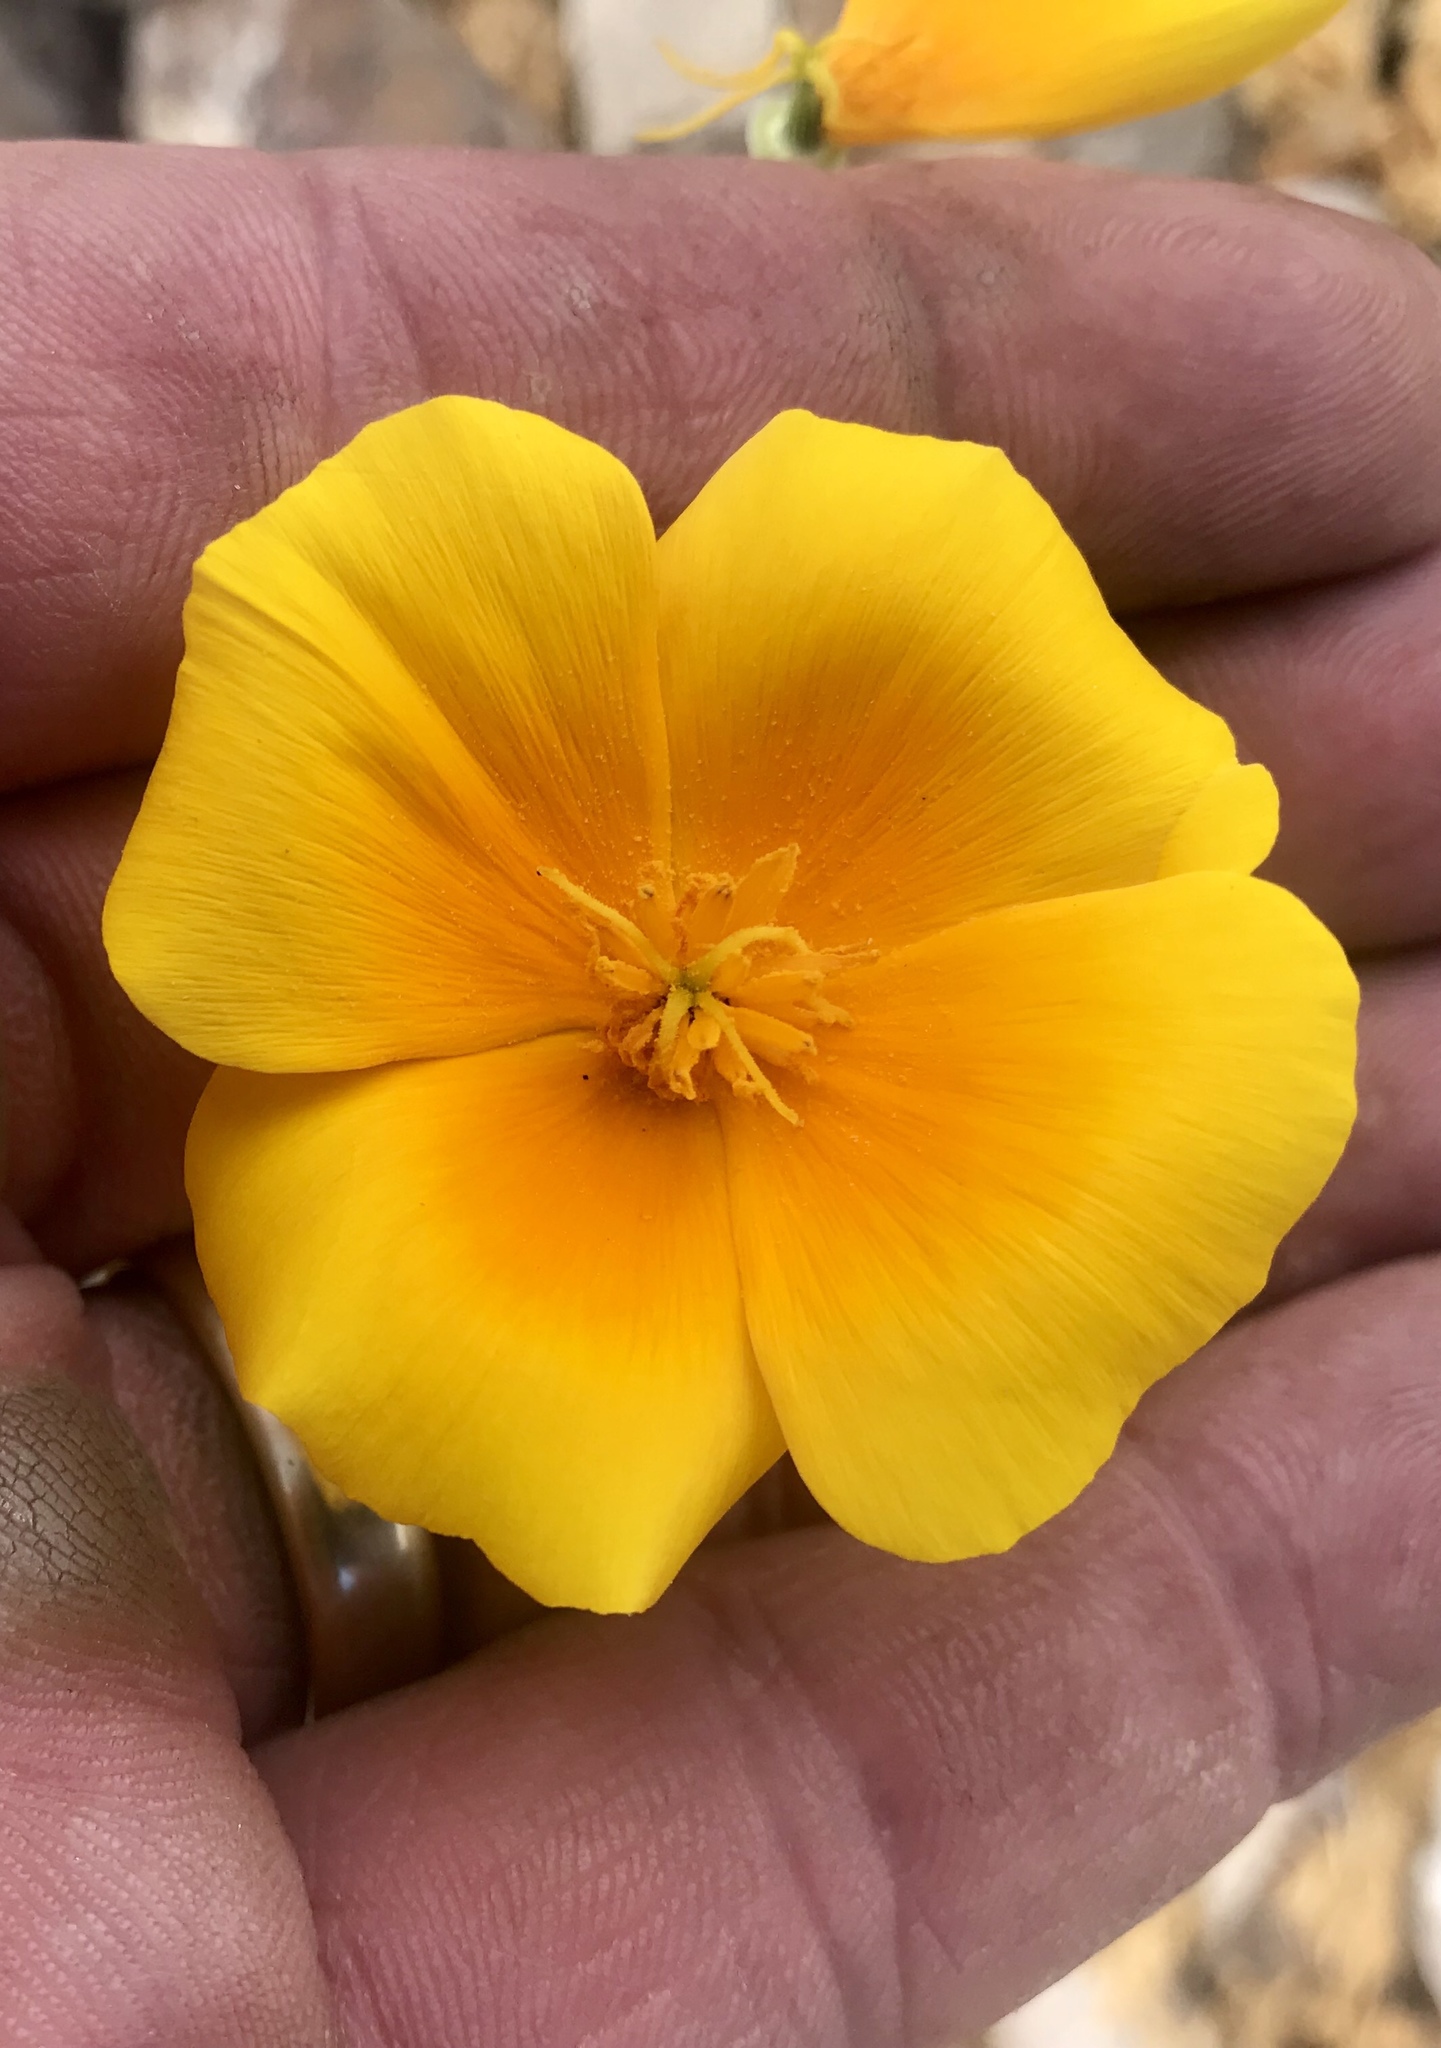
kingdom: Plantae
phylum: Tracheophyta
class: Magnoliopsida
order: Ranunculales
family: Papaveraceae
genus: Eschscholzia
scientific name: Eschscholzia californica
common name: California poppy
